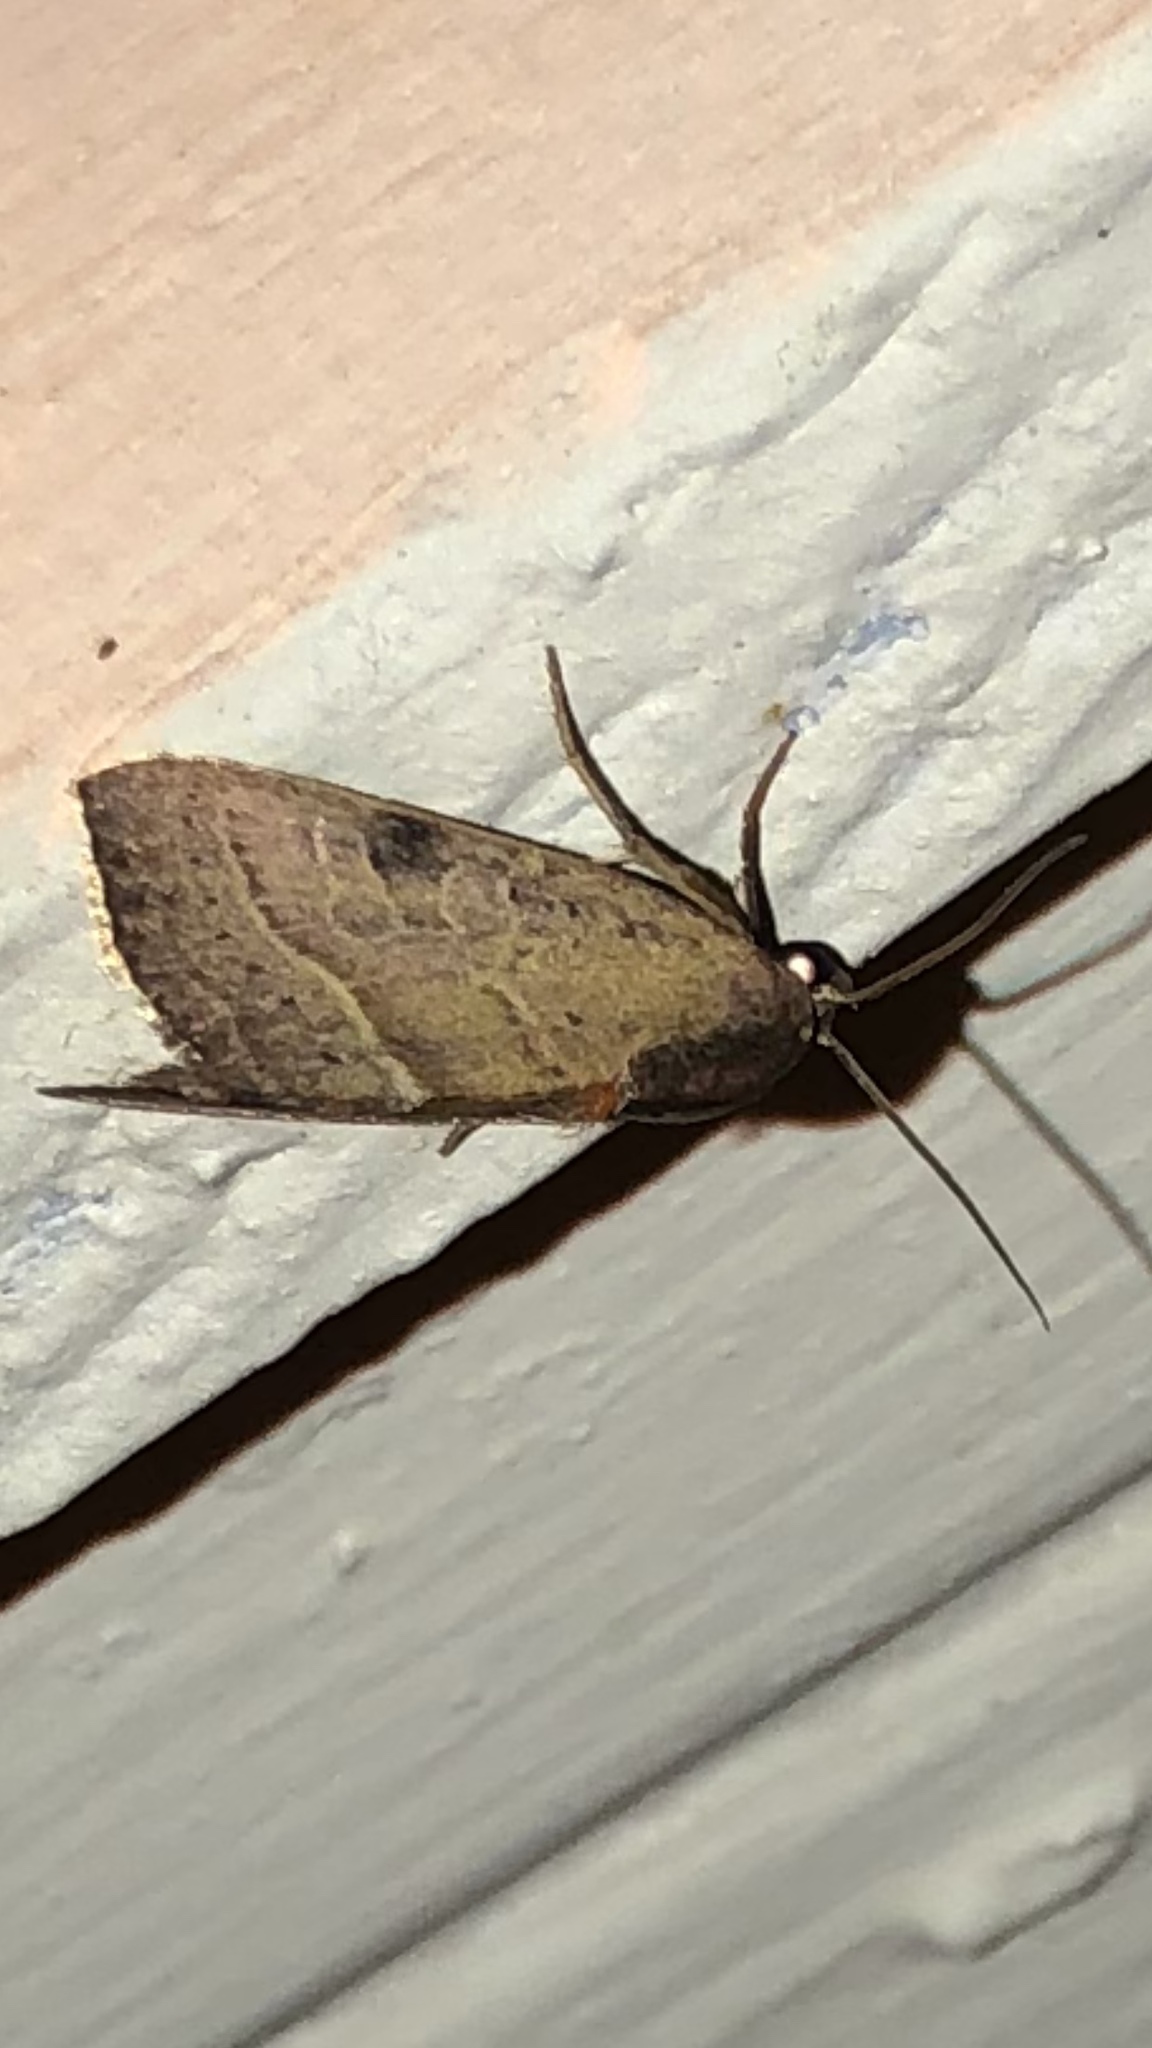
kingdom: Animalia
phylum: Arthropoda
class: Insecta
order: Lepidoptera
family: Noctuidae
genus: Galgula
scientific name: Galgula partita
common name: Wedgeling
